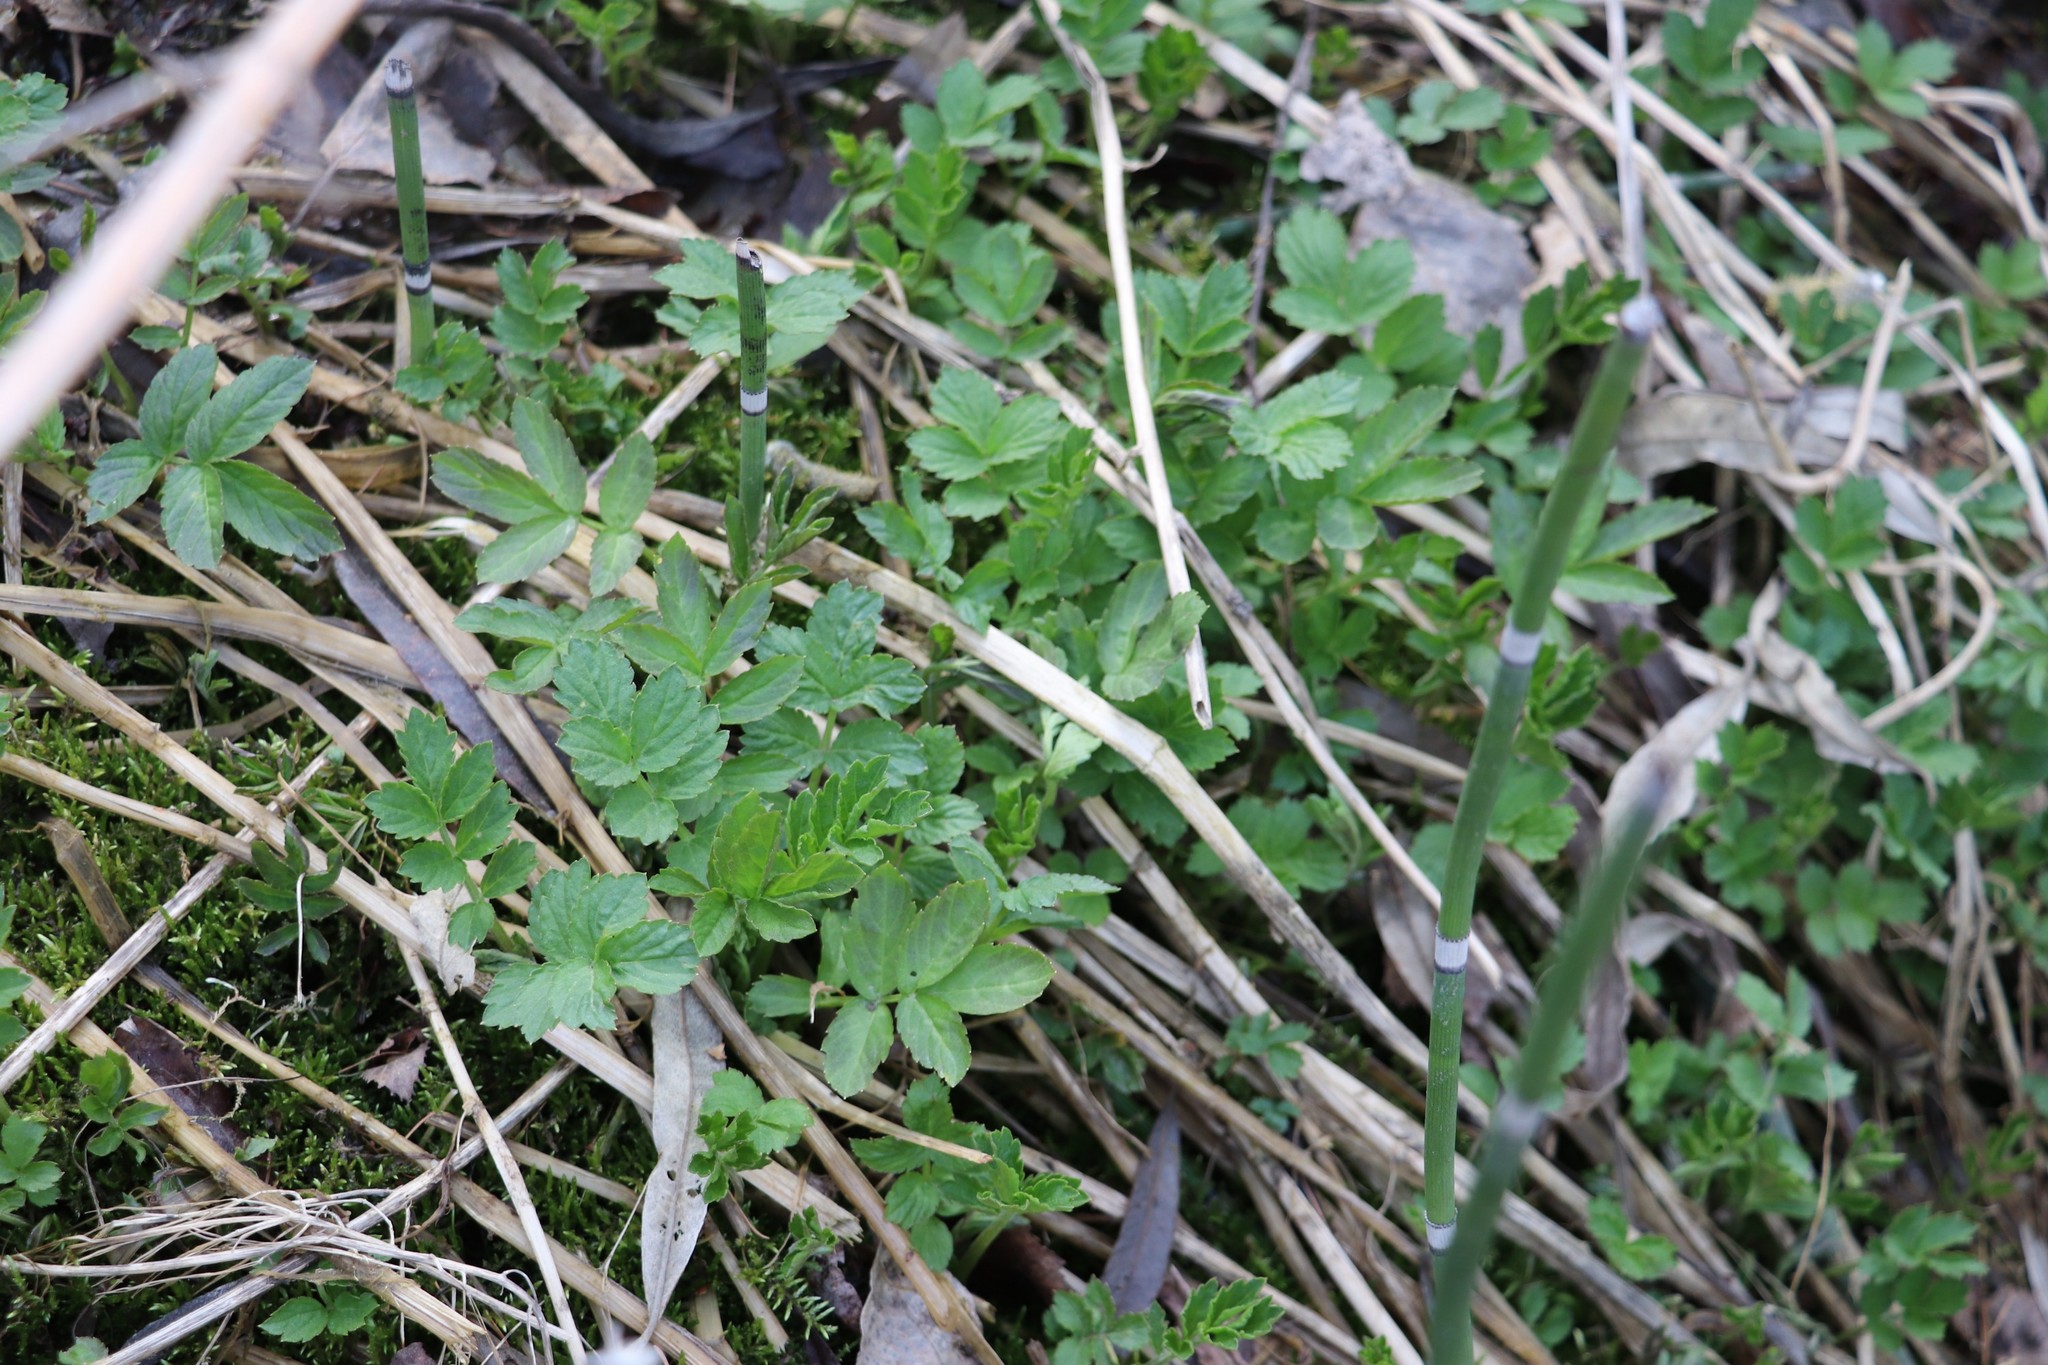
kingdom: Plantae
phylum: Tracheophyta
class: Magnoliopsida
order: Brassicales
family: Brassicaceae
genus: Cardamine
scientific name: Cardamine macrophylla
